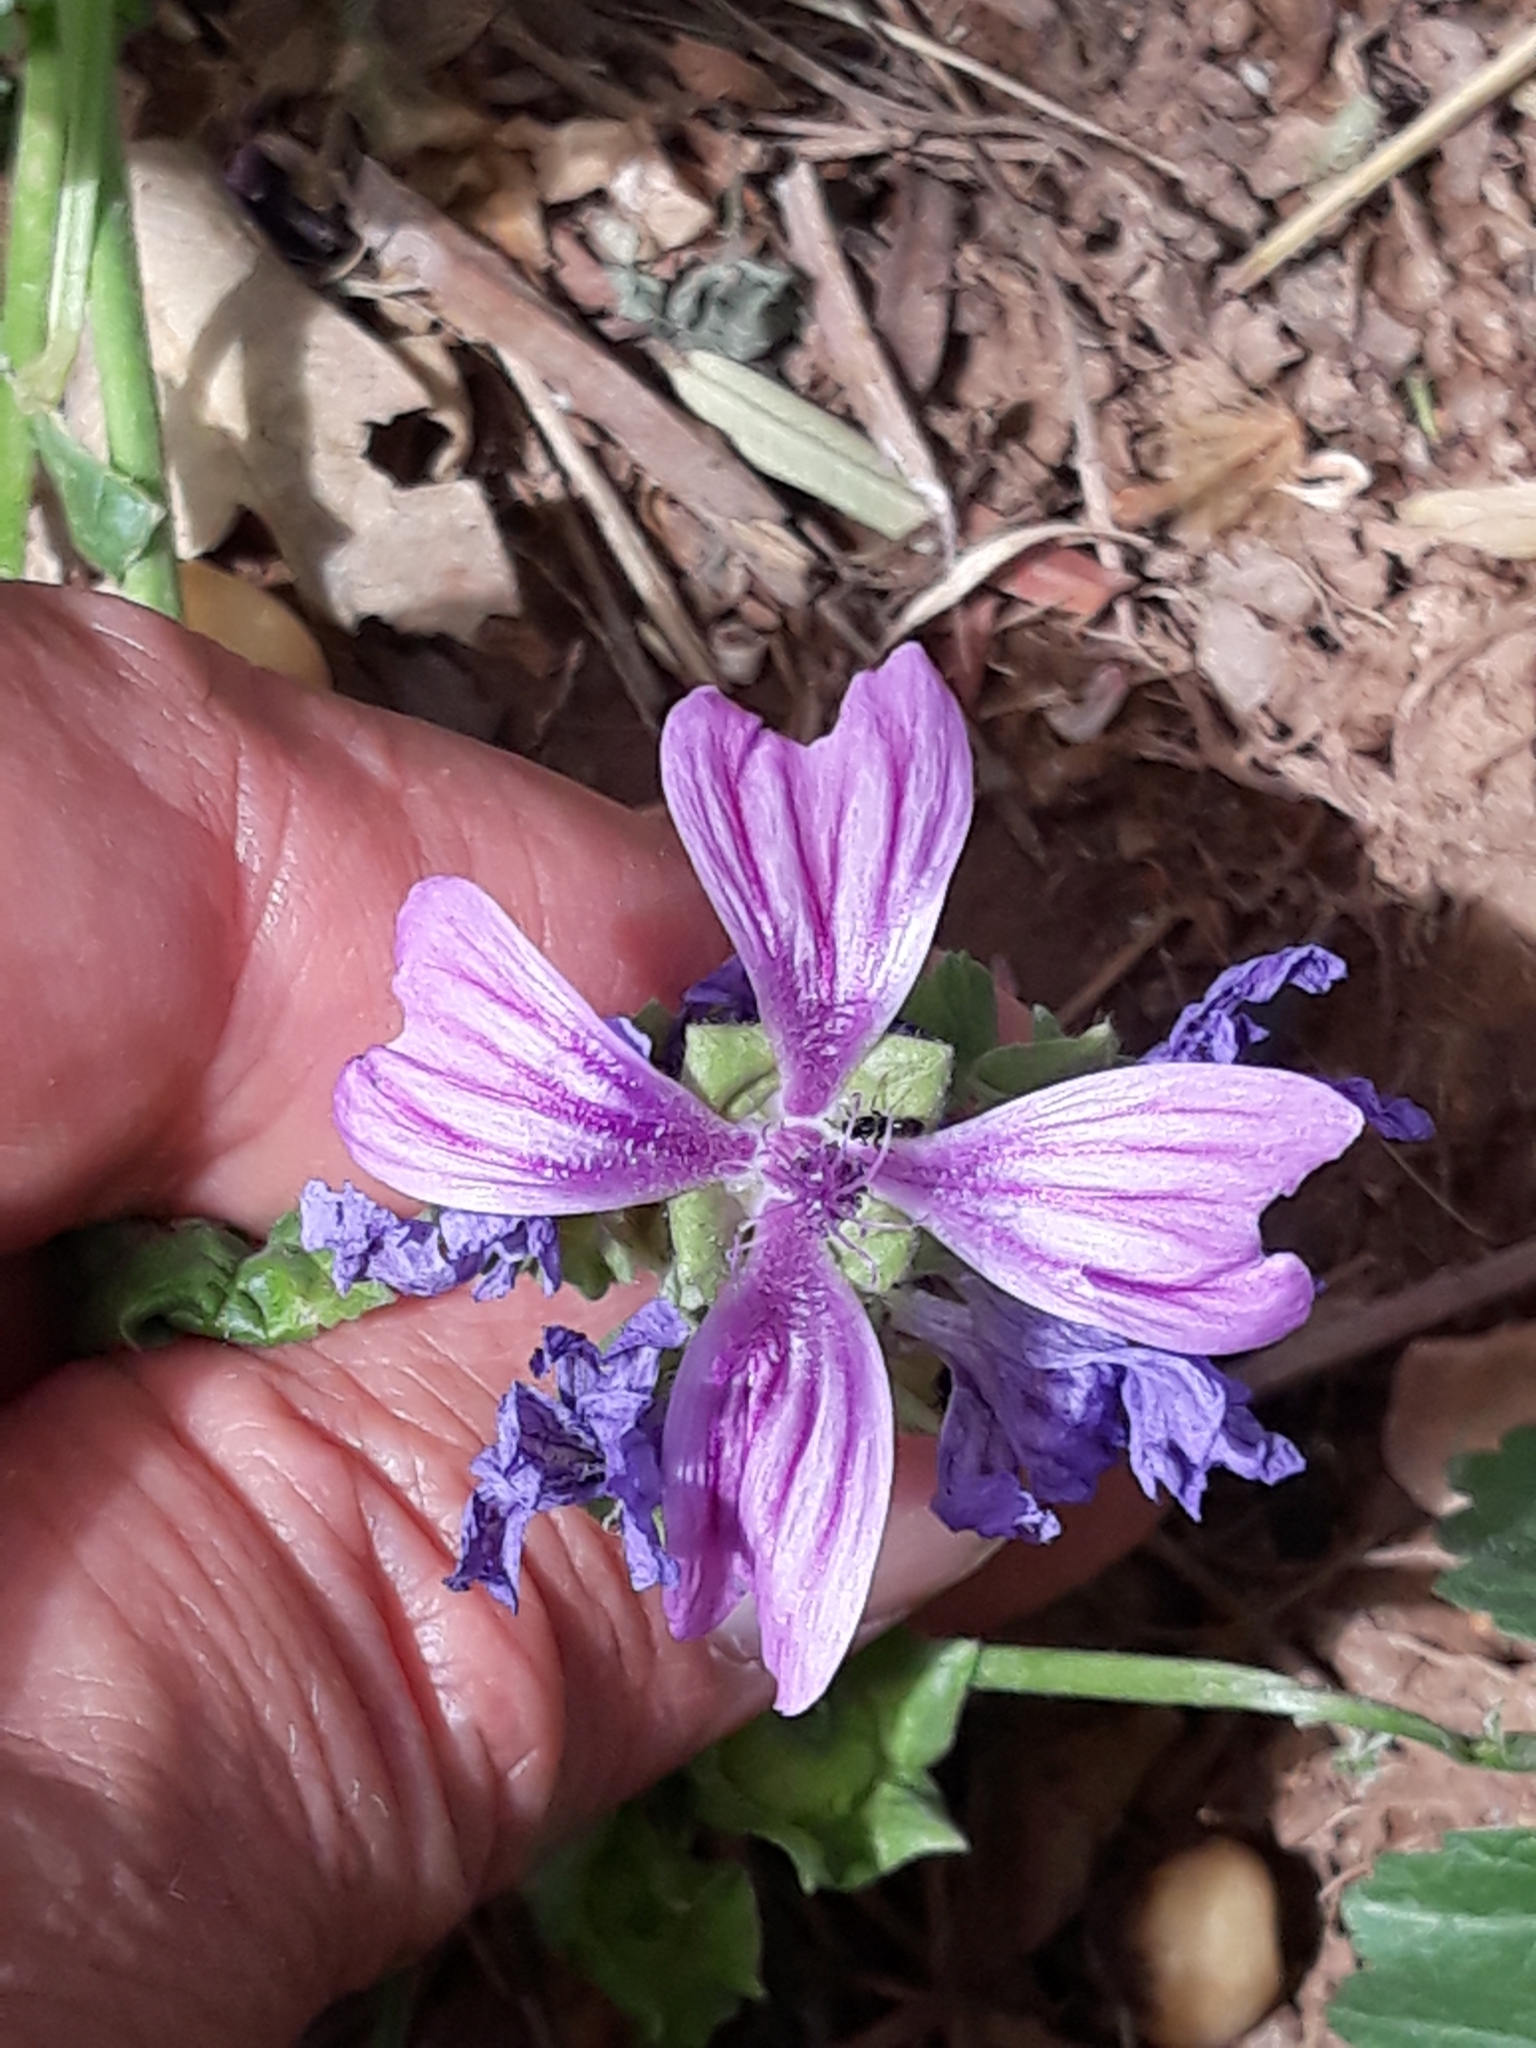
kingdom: Plantae
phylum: Tracheophyta
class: Magnoliopsida
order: Malvales
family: Malvaceae
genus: Malva
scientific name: Malva sylvestris
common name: Common mallow
